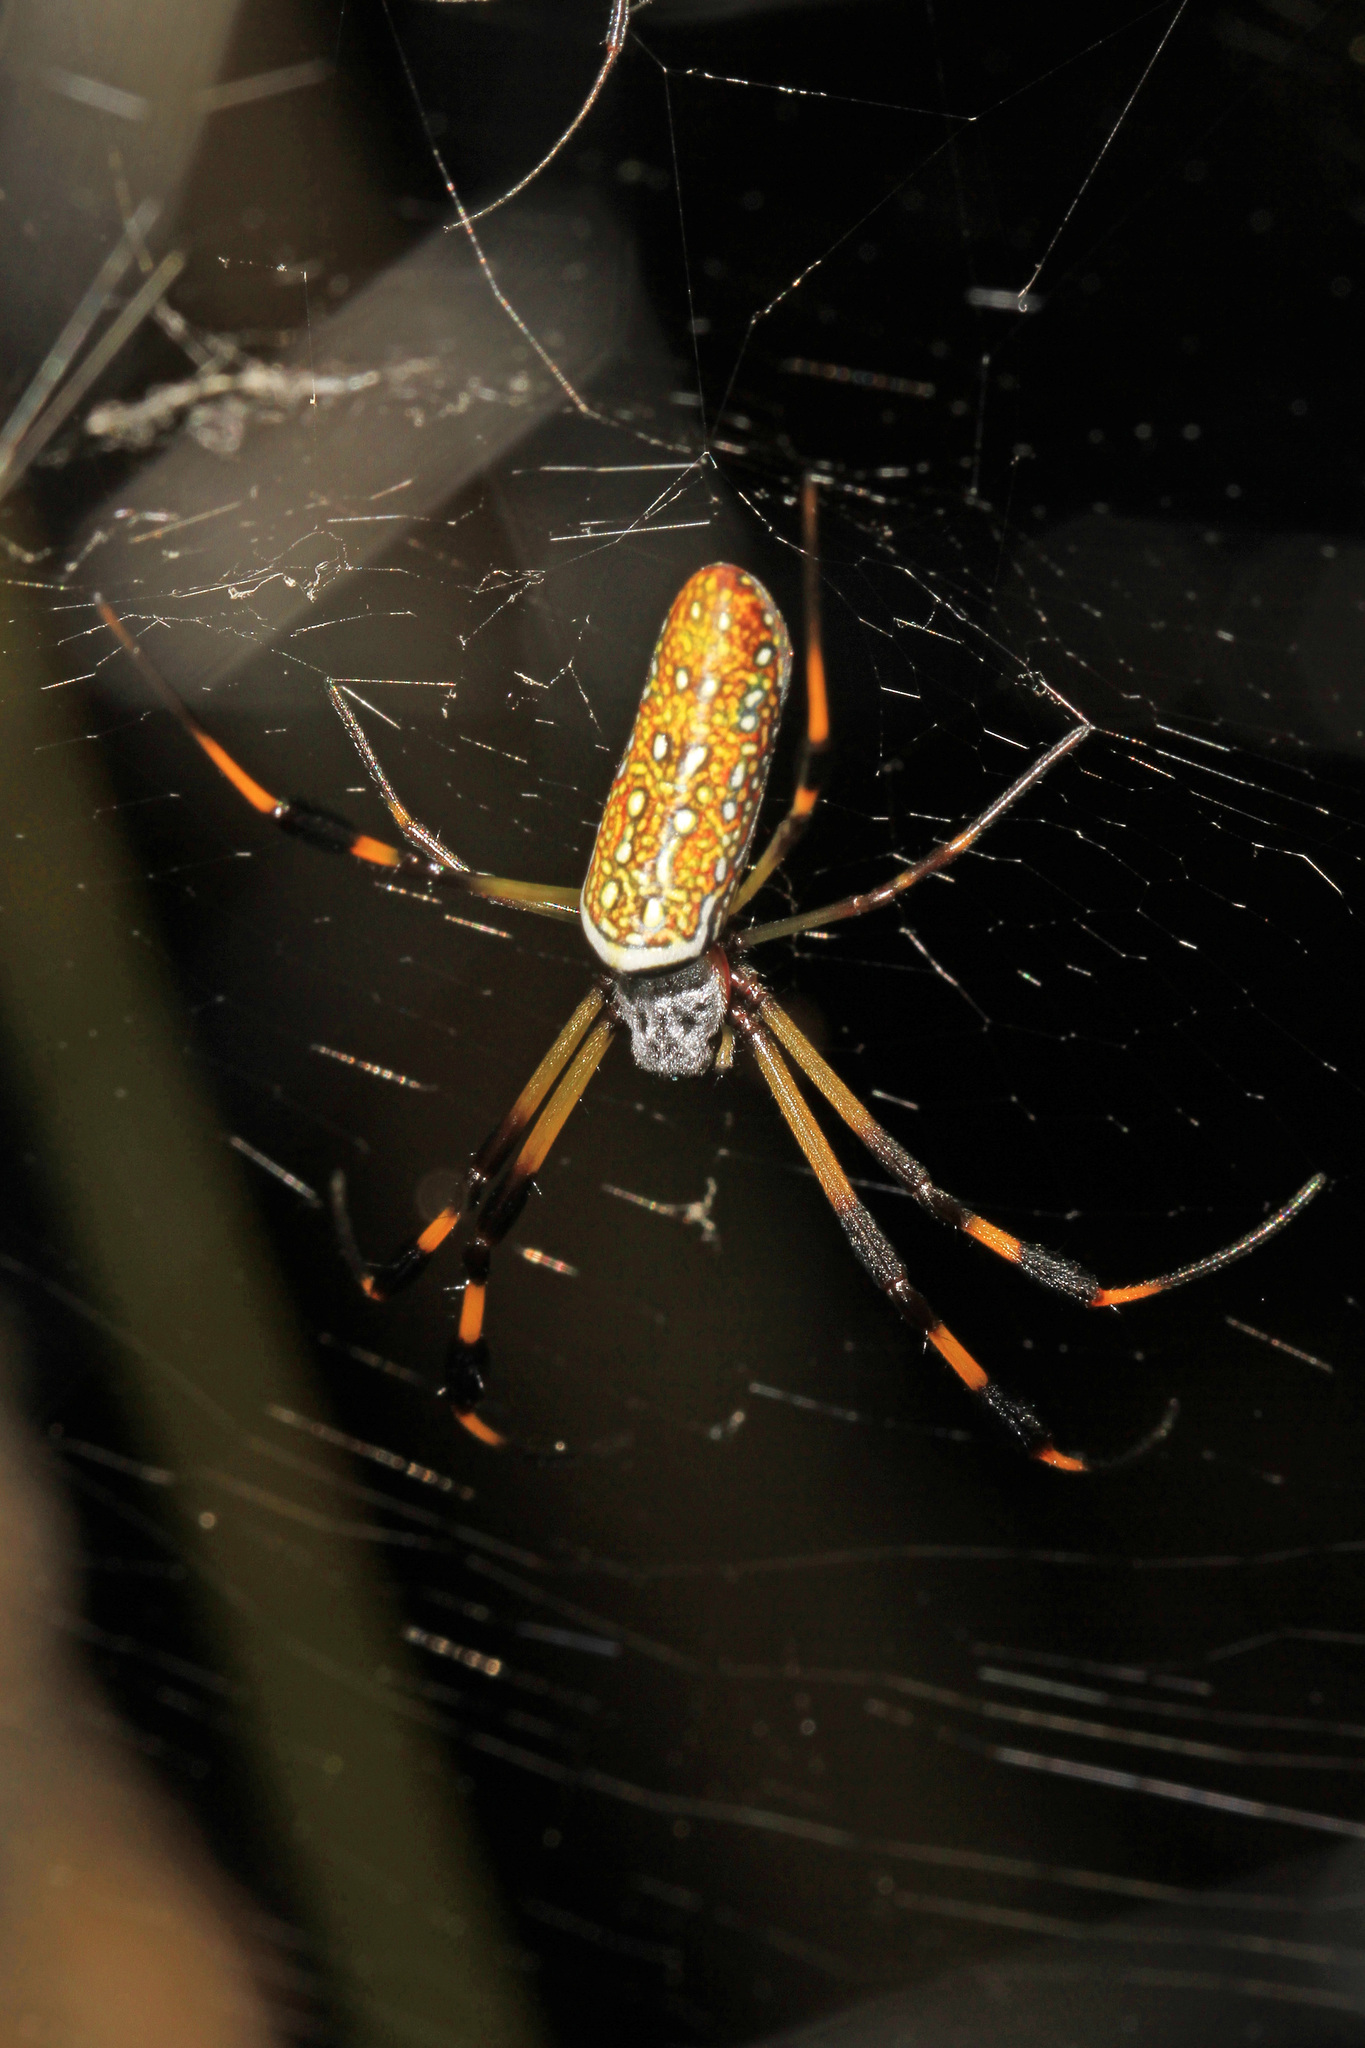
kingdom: Animalia
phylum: Arthropoda
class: Arachnida
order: Araneae
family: Araneidae
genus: Trichonephila
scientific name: Trichonephila clavipes
